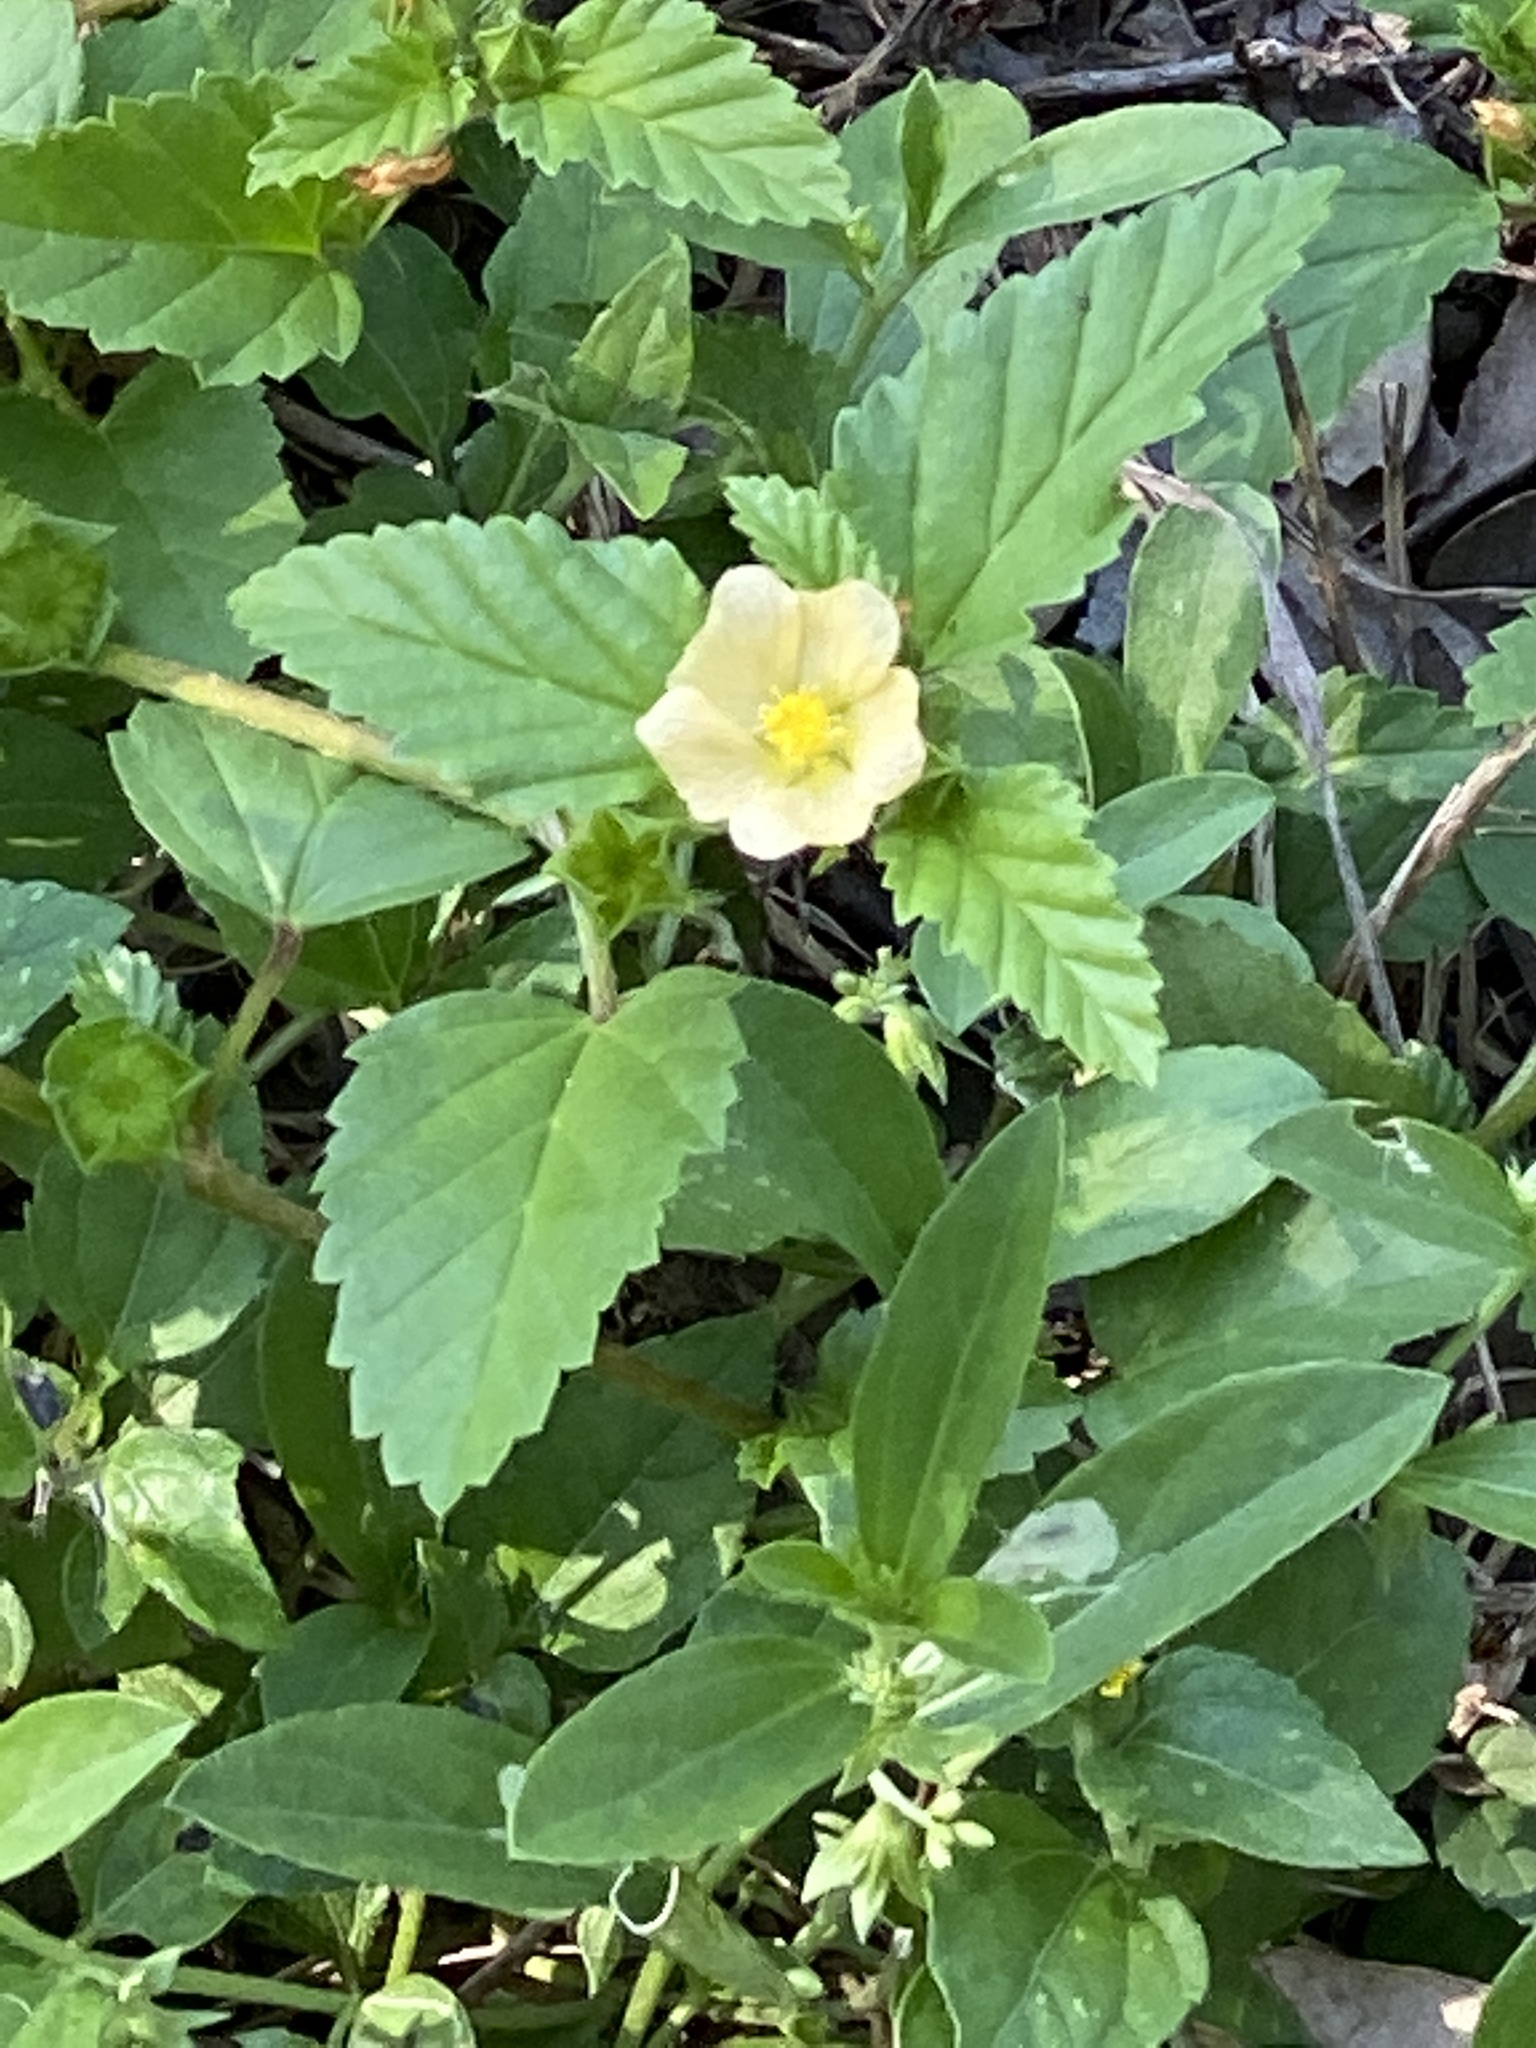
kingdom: Plantae
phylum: Tracheophyta
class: Magnoliopsida
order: Malvales
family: Malvaceae
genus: Malvastrum
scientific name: Malvastrum coromandelianum
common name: Threelobe false mallow
